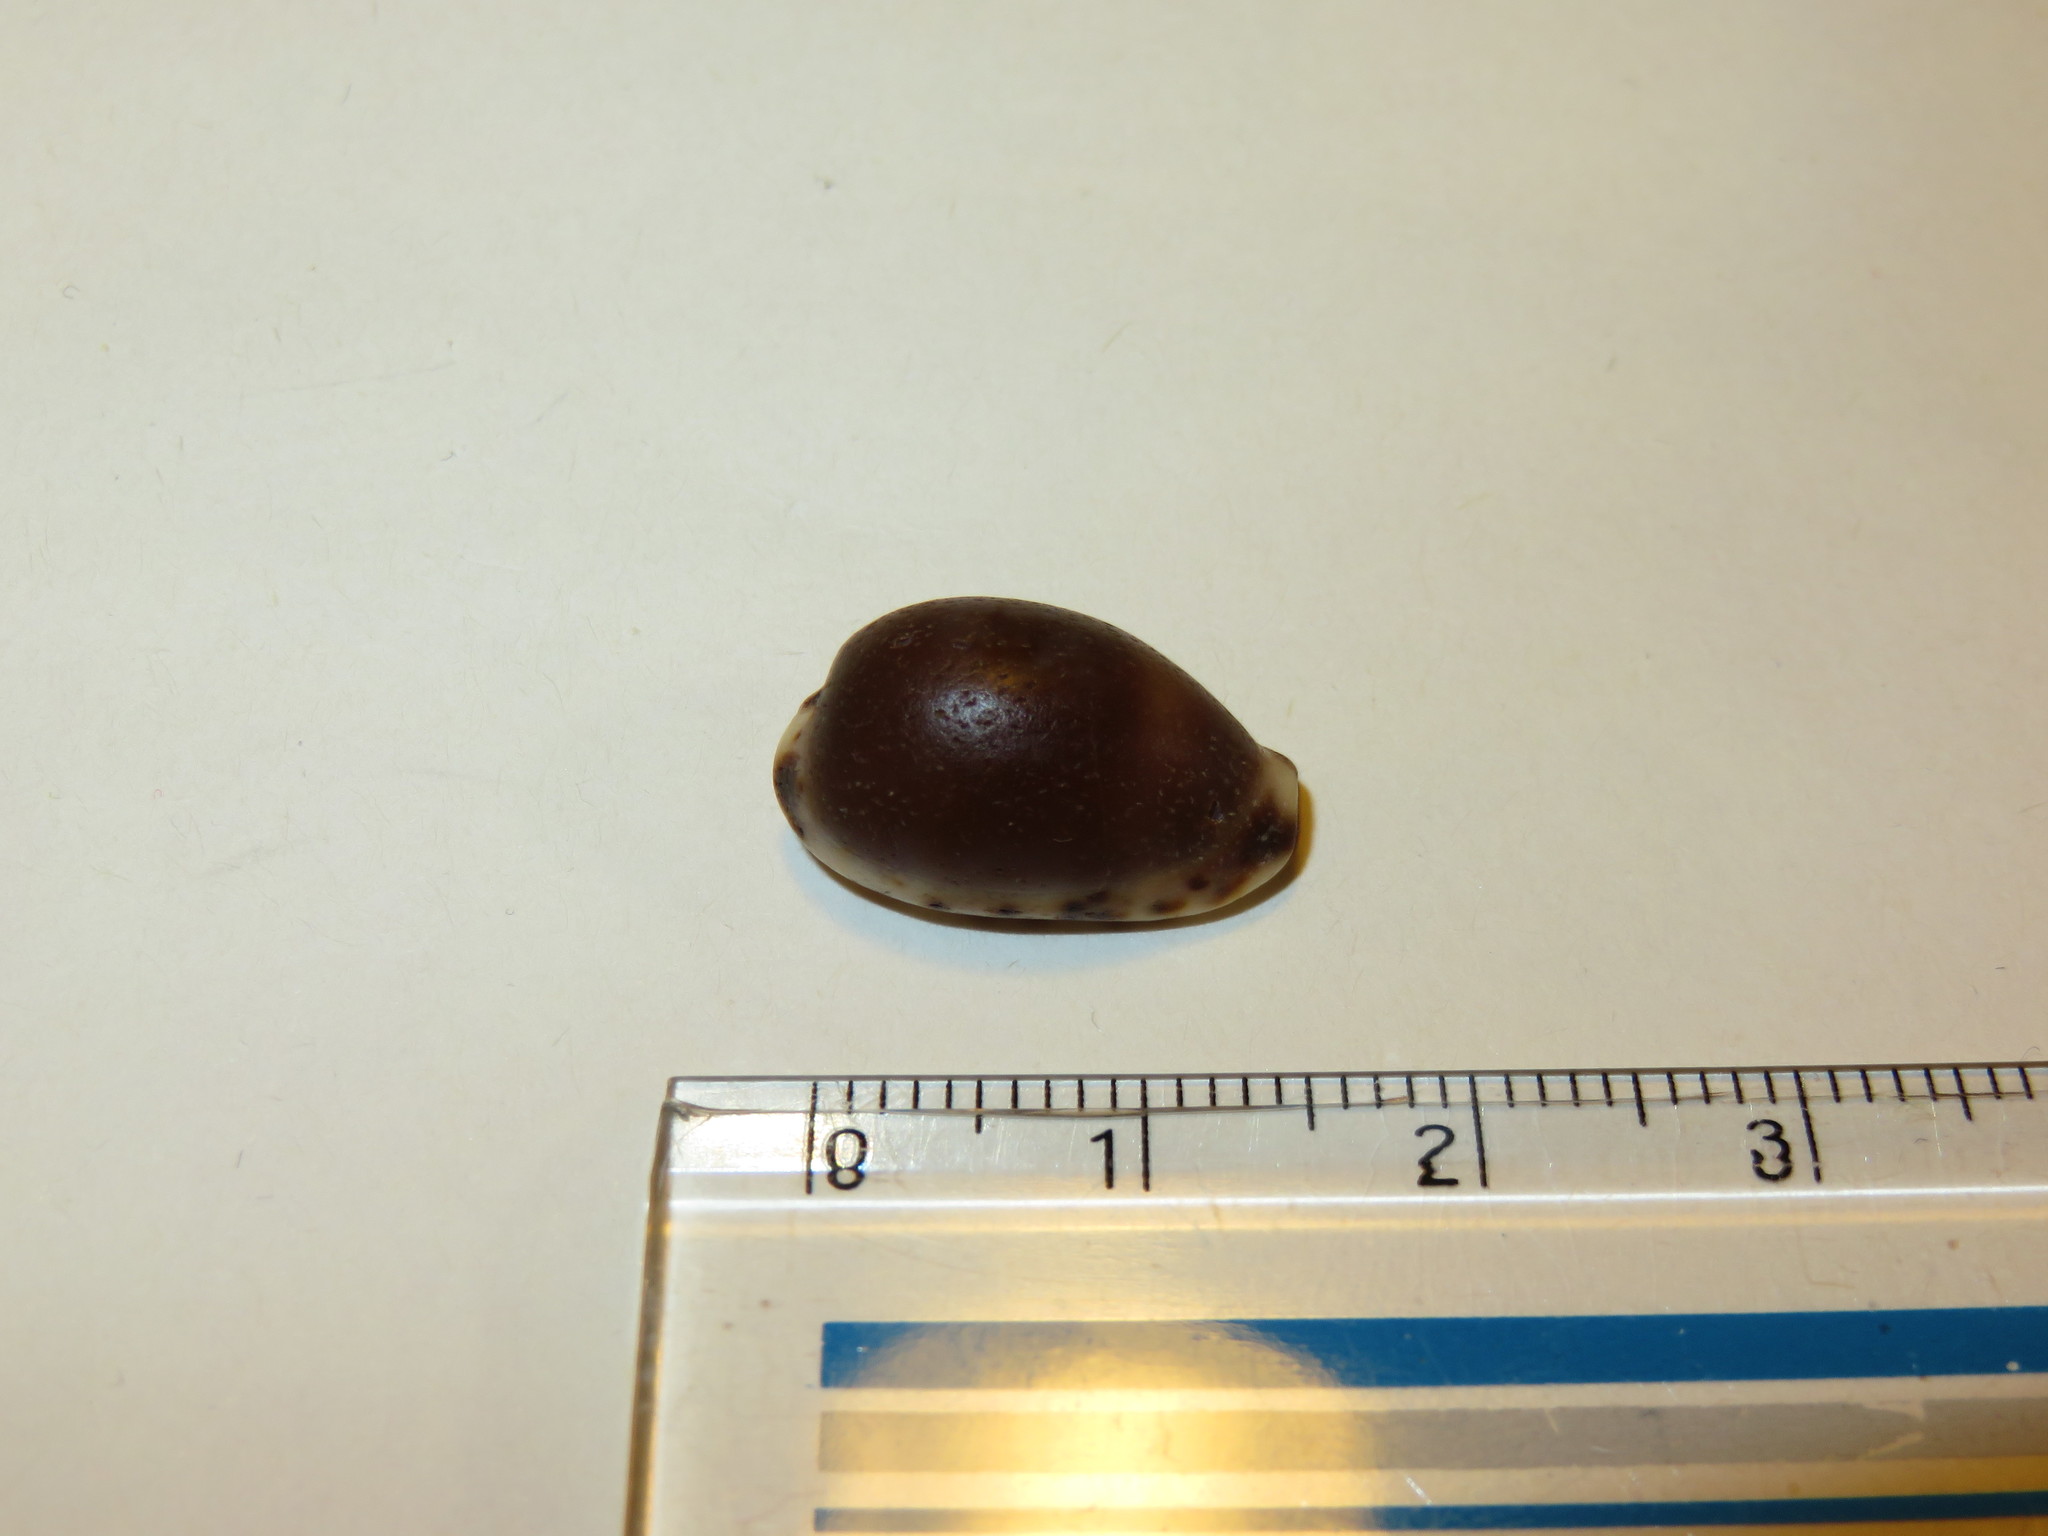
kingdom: Animalia
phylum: Mollusca
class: Gastropoda
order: Littorinimorpha
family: Cypraeidae
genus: Purpuradusta
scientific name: Purpuradusta gracilis
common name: Graceful cowrie
